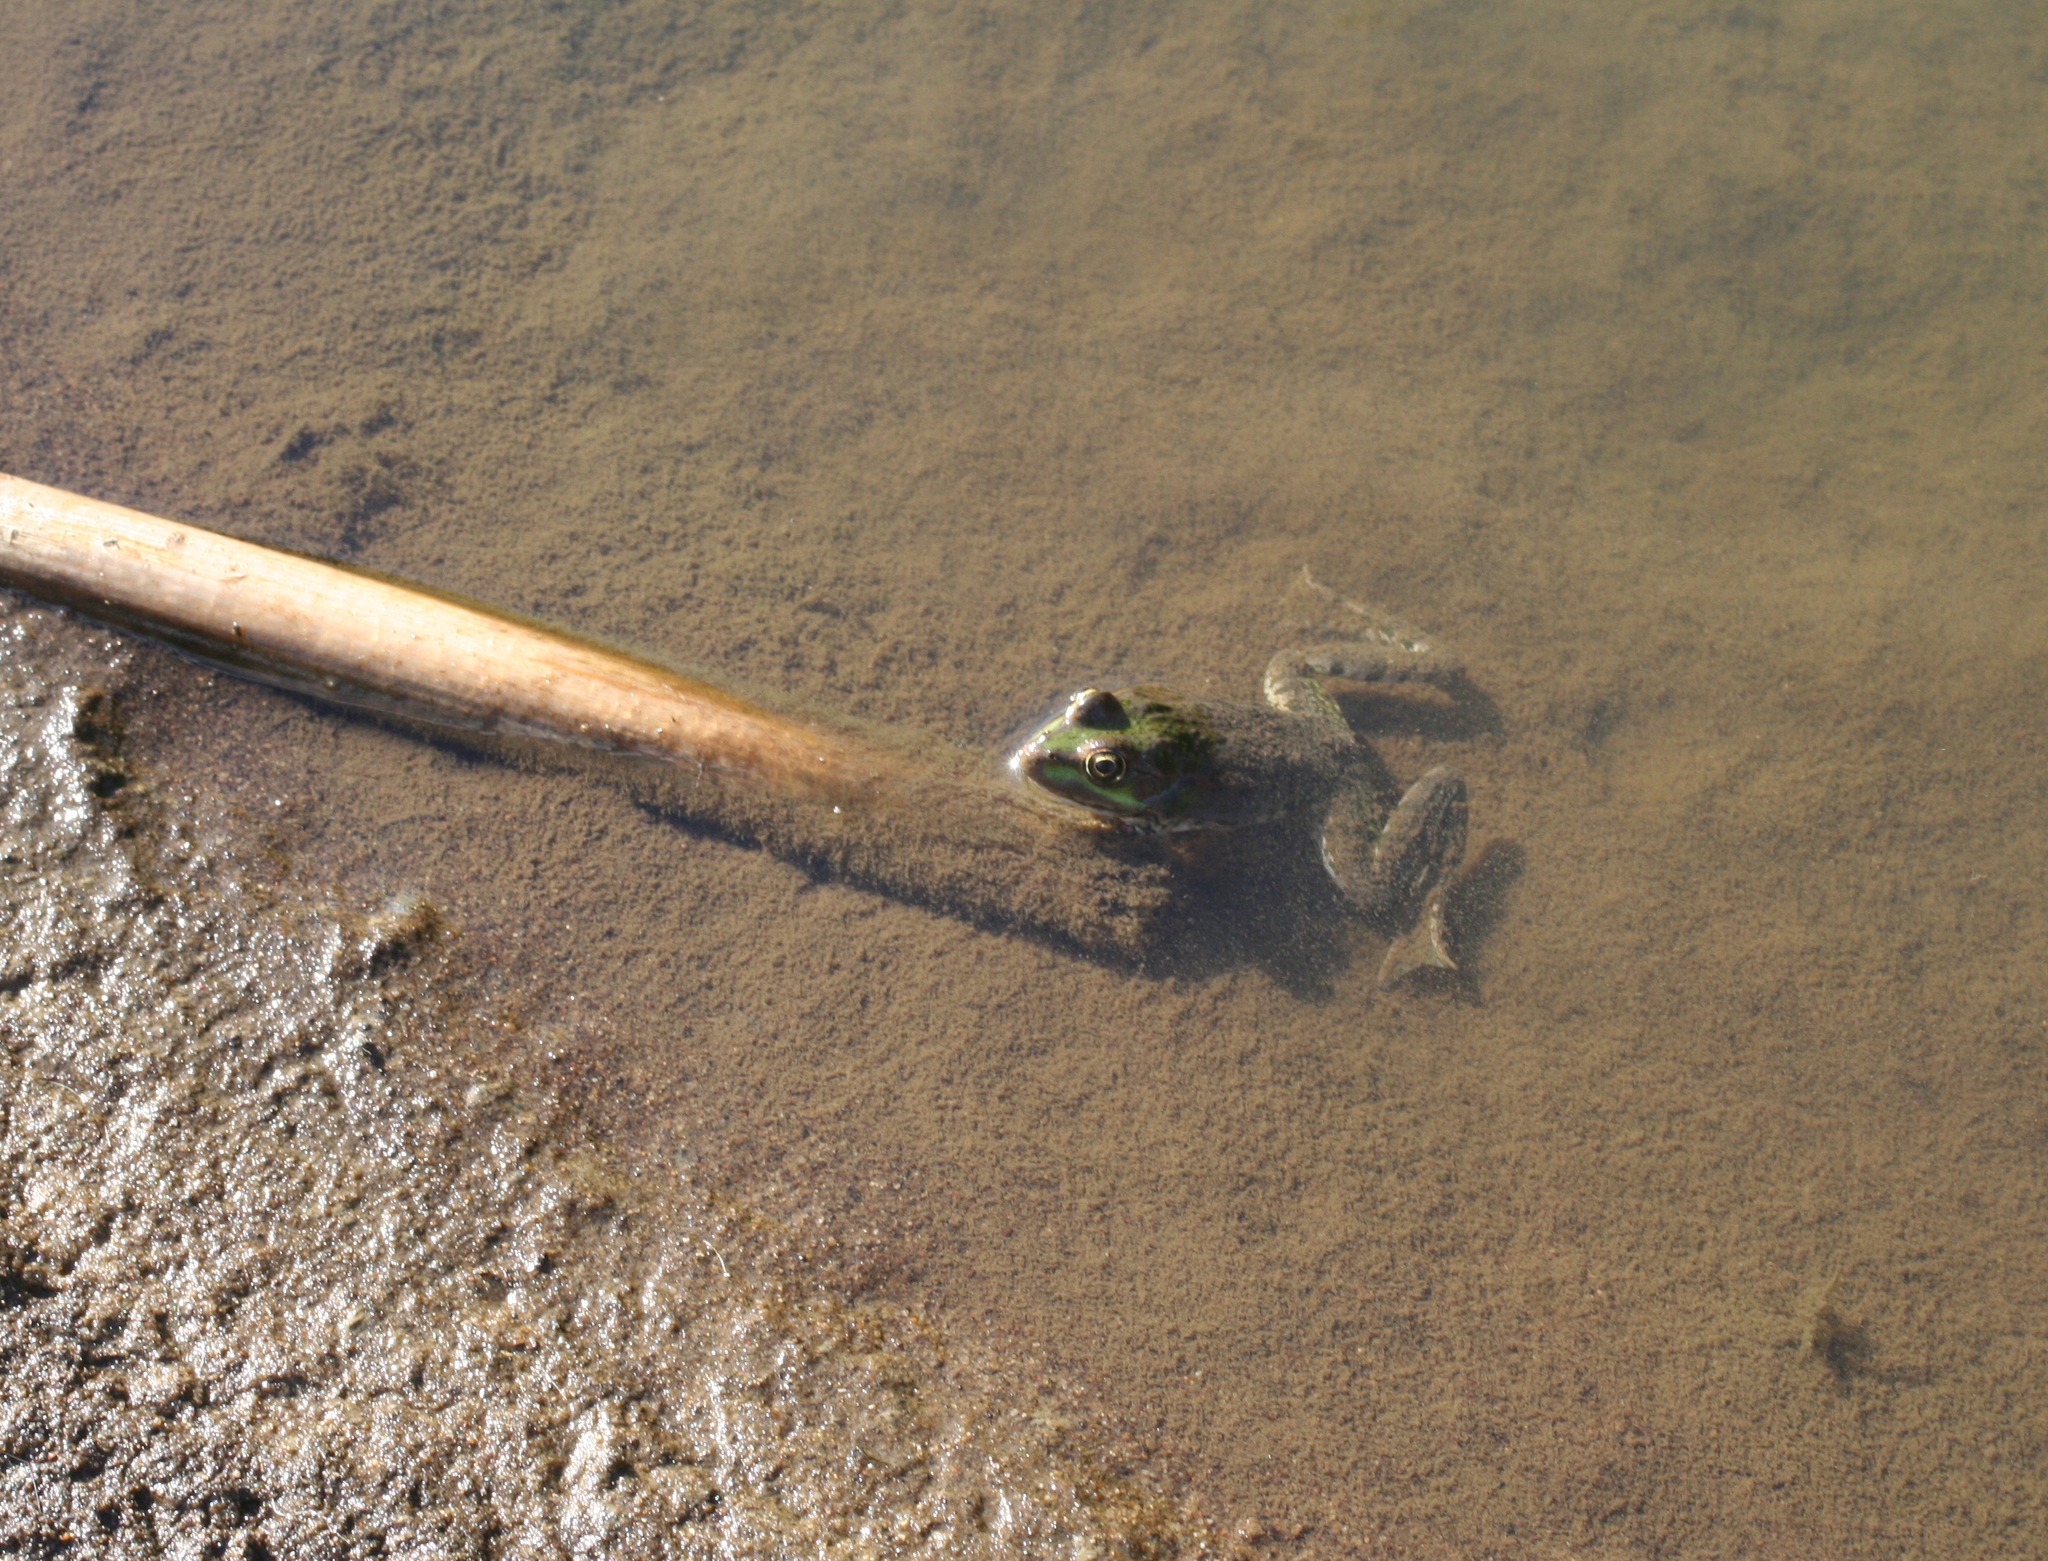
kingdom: Animalia
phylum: Chordata
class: Amphibia
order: Anura
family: Ranidae
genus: Pelophylax
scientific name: Pelophylax ridibundus
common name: Marsh frog
